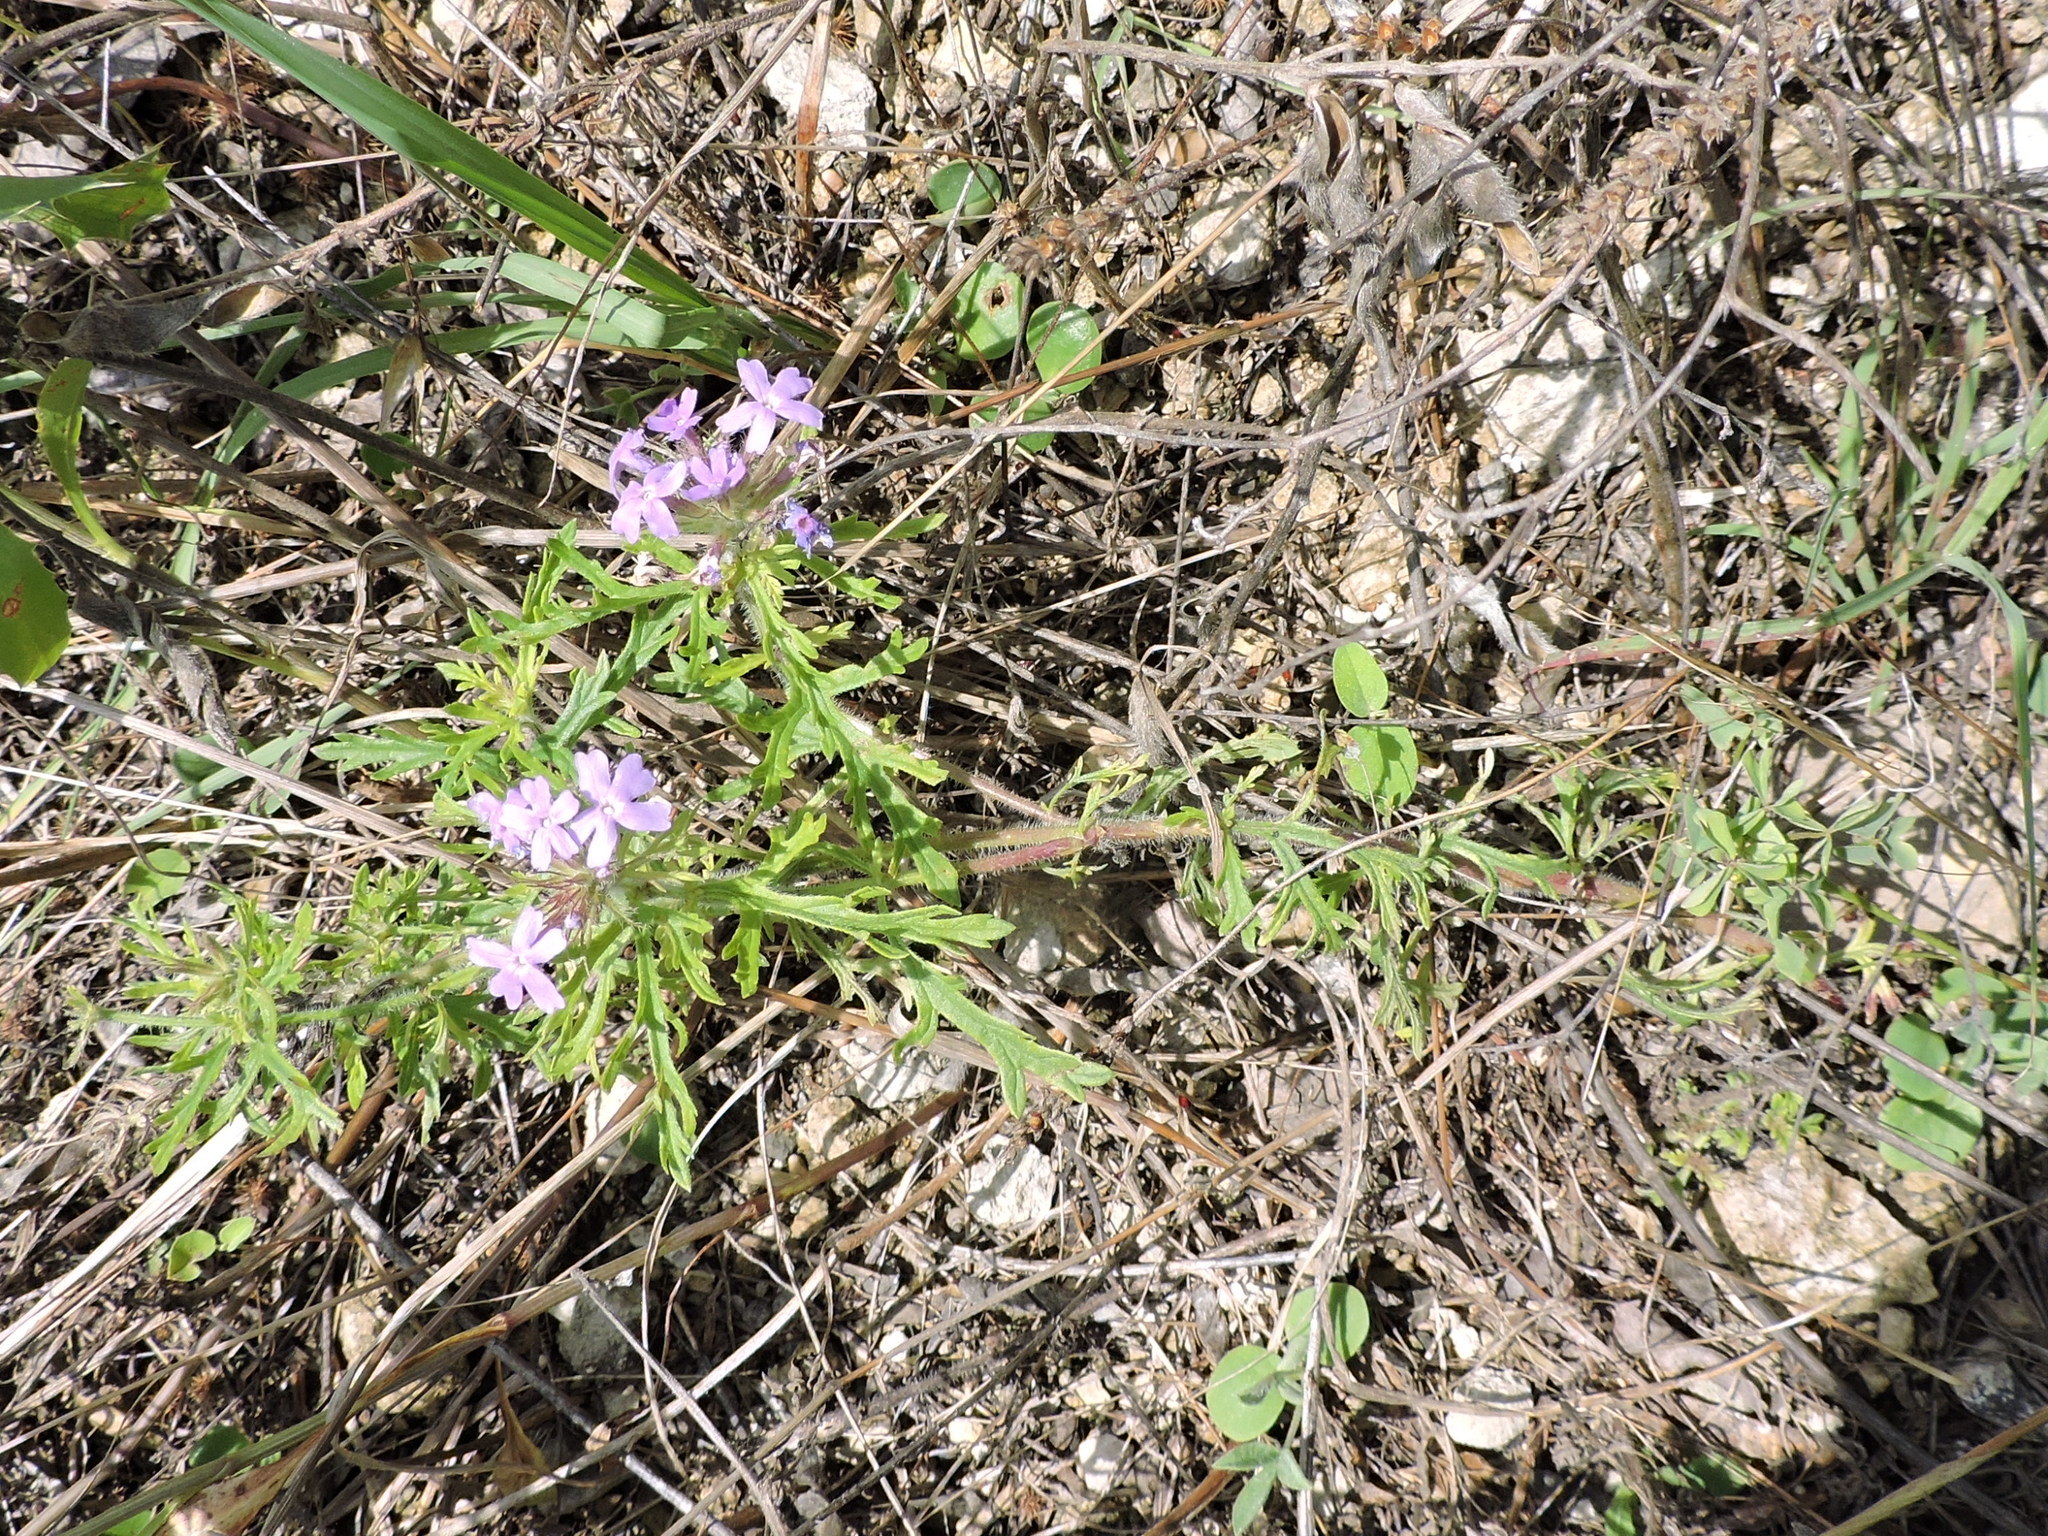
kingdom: Plantae
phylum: Tracheophyta
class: Magnoliopsida
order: Lamiales
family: Verbenaceae
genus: Verbena
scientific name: Verbena bipinnatifida
